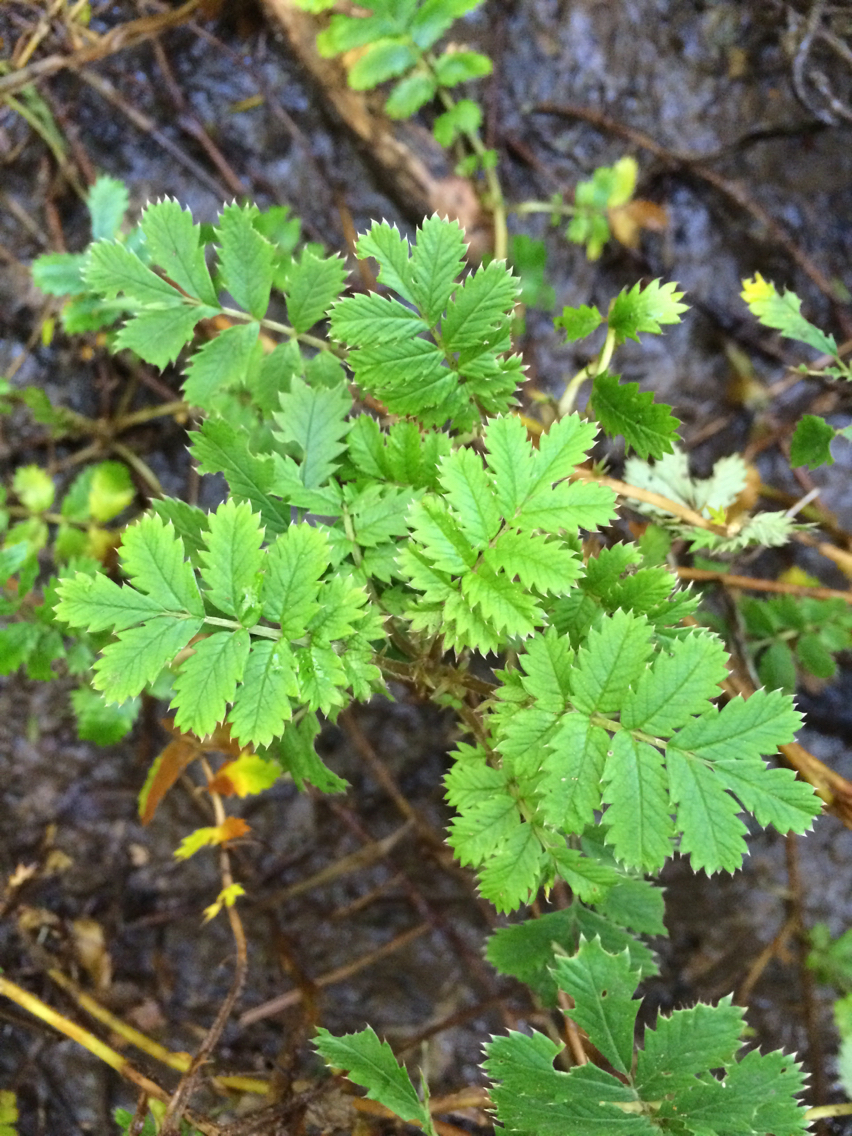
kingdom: Plantae
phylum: Tracheophyta
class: Magnoliopsida
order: Rosales
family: Rosaceae
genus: Acaena
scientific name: Acaena anserinifolia
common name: Bronze pirri-pirri-bur
